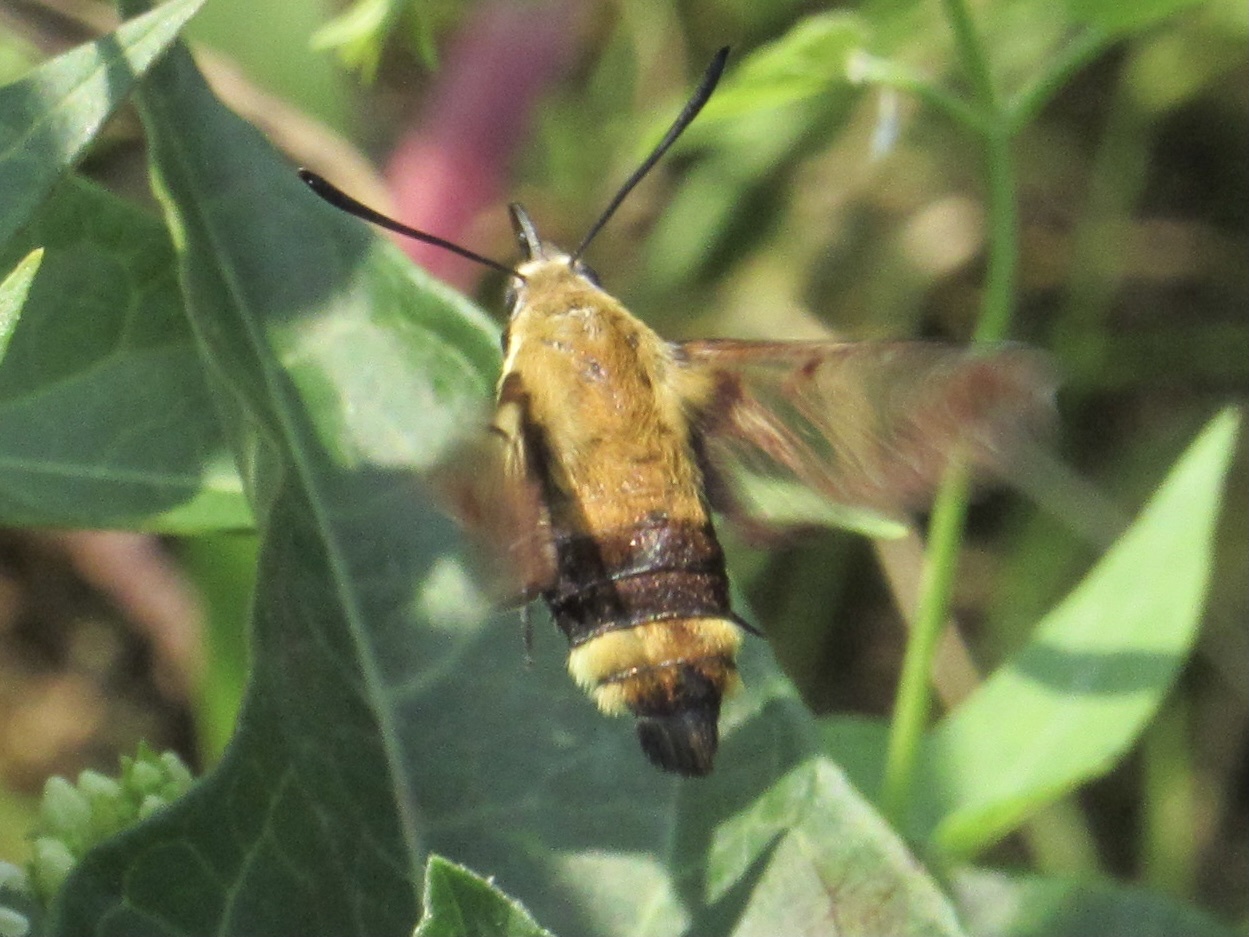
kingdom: Animalia
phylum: Arthropoda
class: Insecta
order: Lepidoptera
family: Sphingidae
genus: Hemaris
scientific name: Hemaris diffinis
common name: Bumblebee moth
